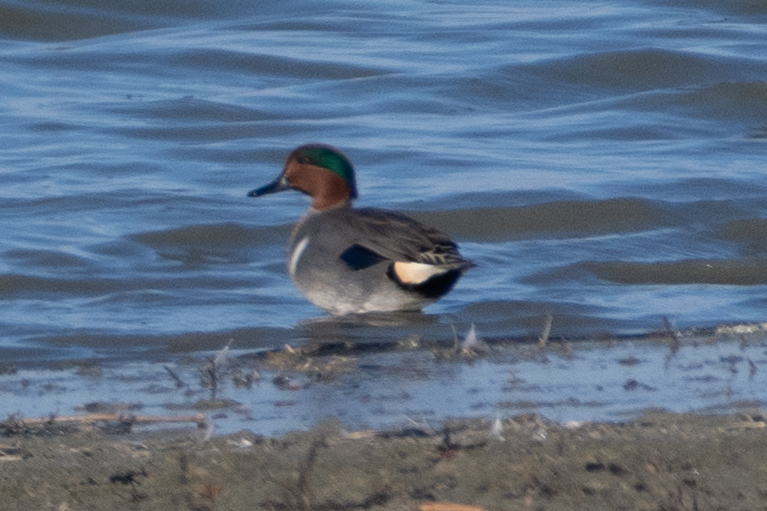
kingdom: Animalia
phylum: Chordata
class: Aves
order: Anseriformes
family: Anatidae
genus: Anas
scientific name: Anas crecca
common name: Eurasian teal
